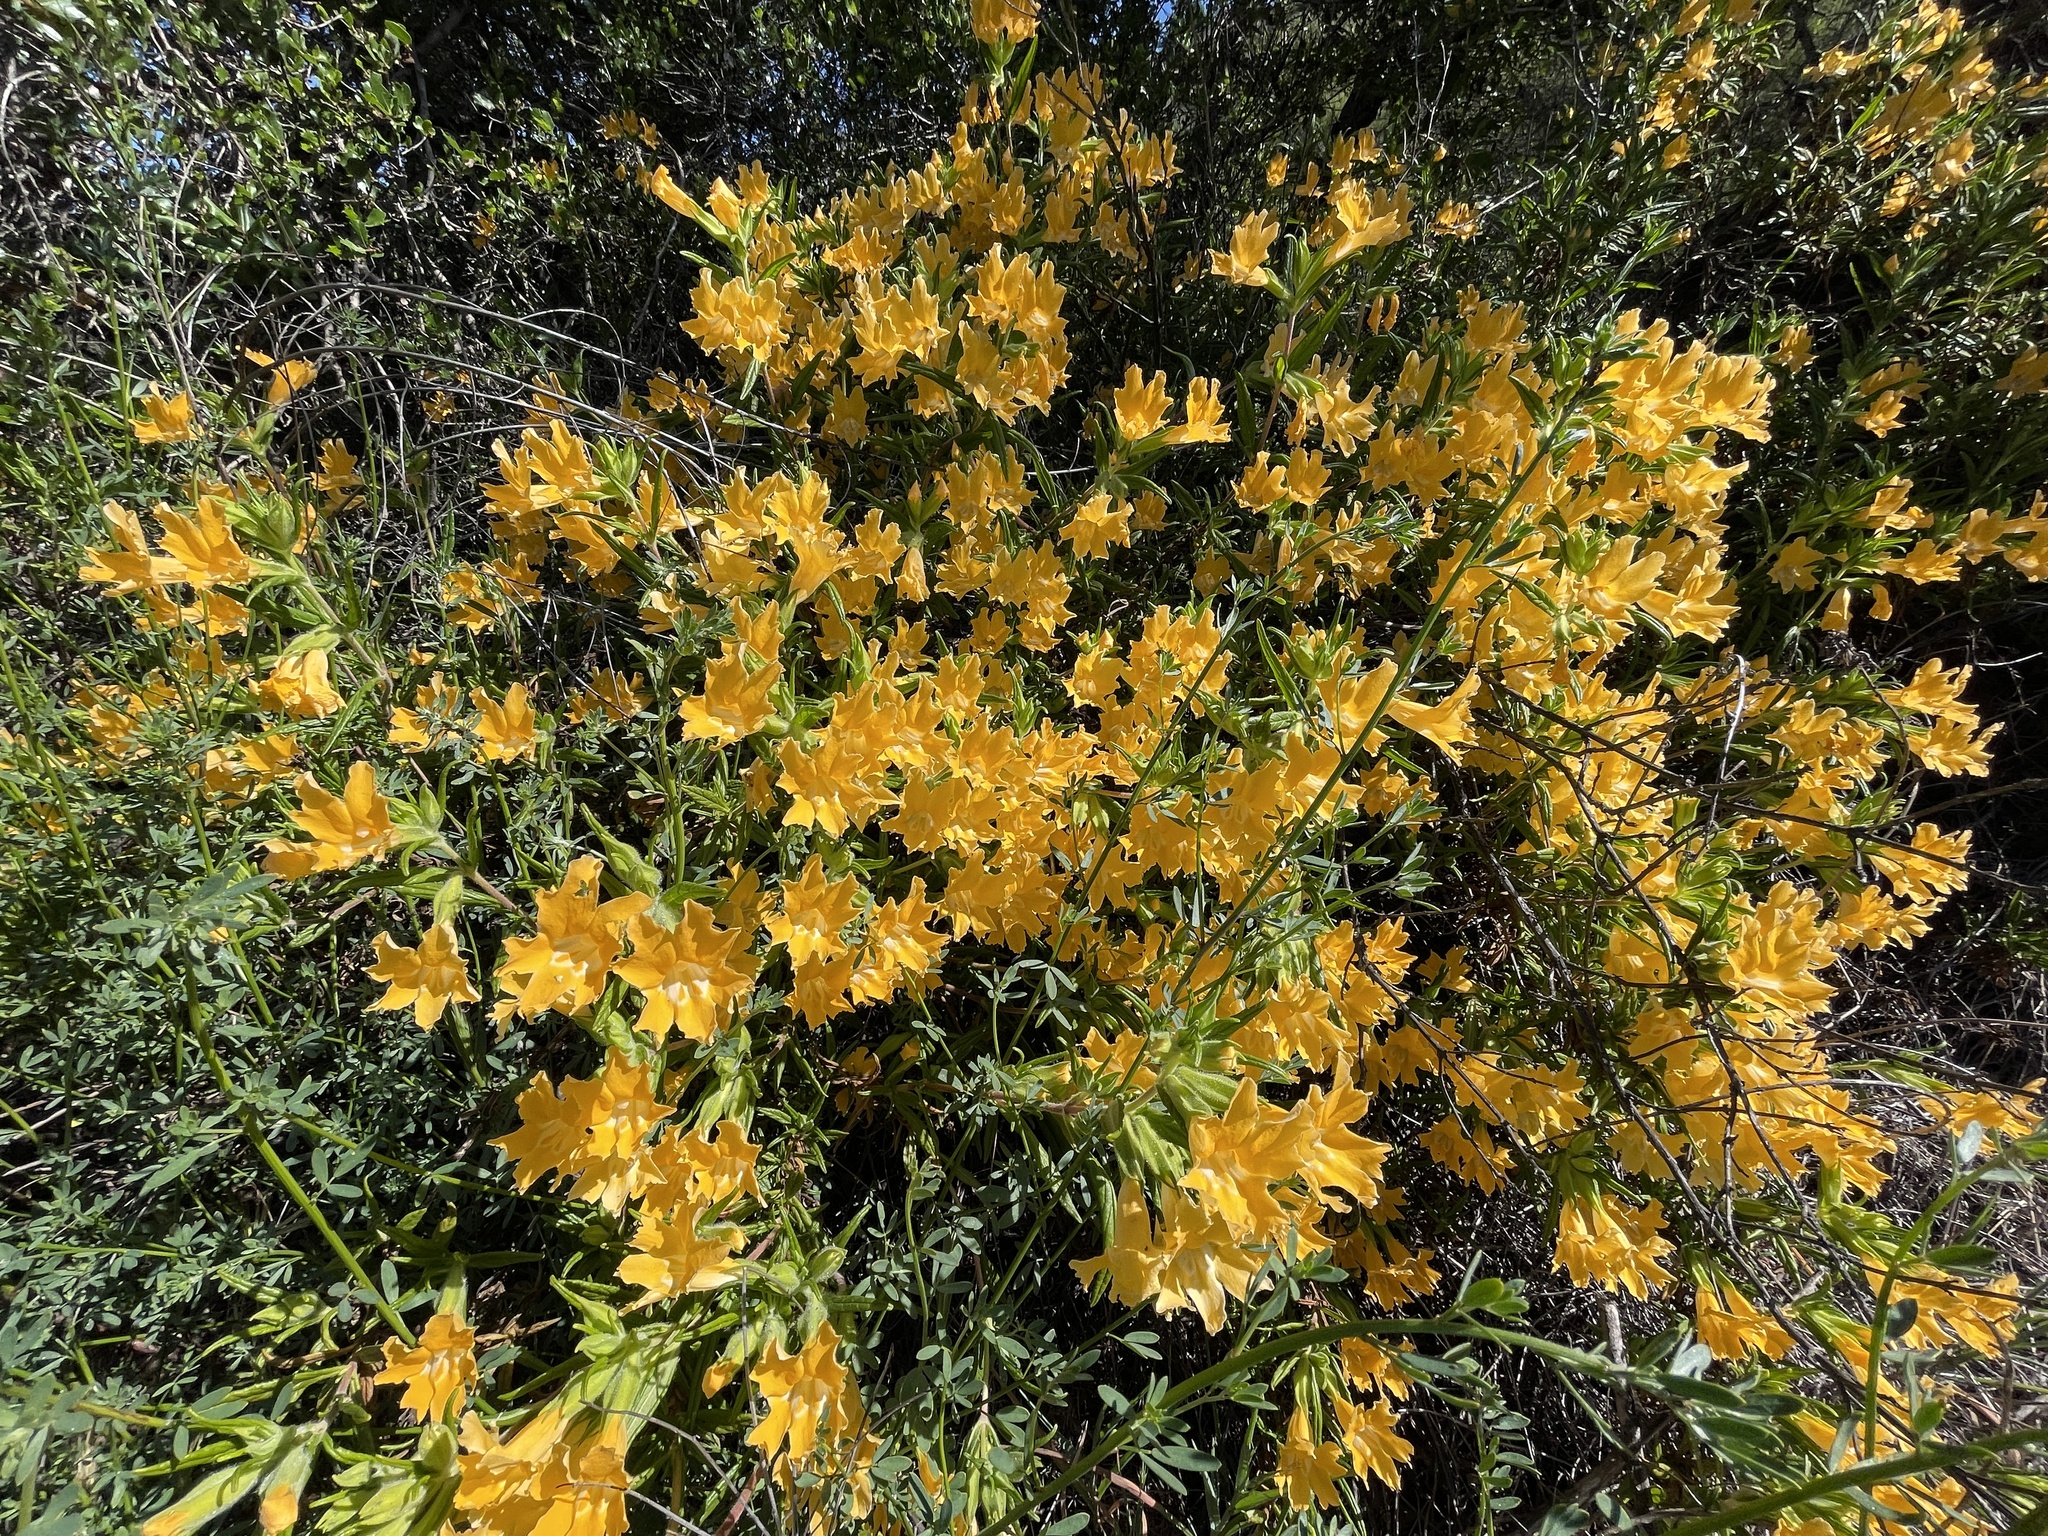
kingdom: Plantae
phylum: Tracheophyta
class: Magnoliopsida
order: Lamiales
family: Phrymaceae
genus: Diplacus
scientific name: Diplacus longiflorus
